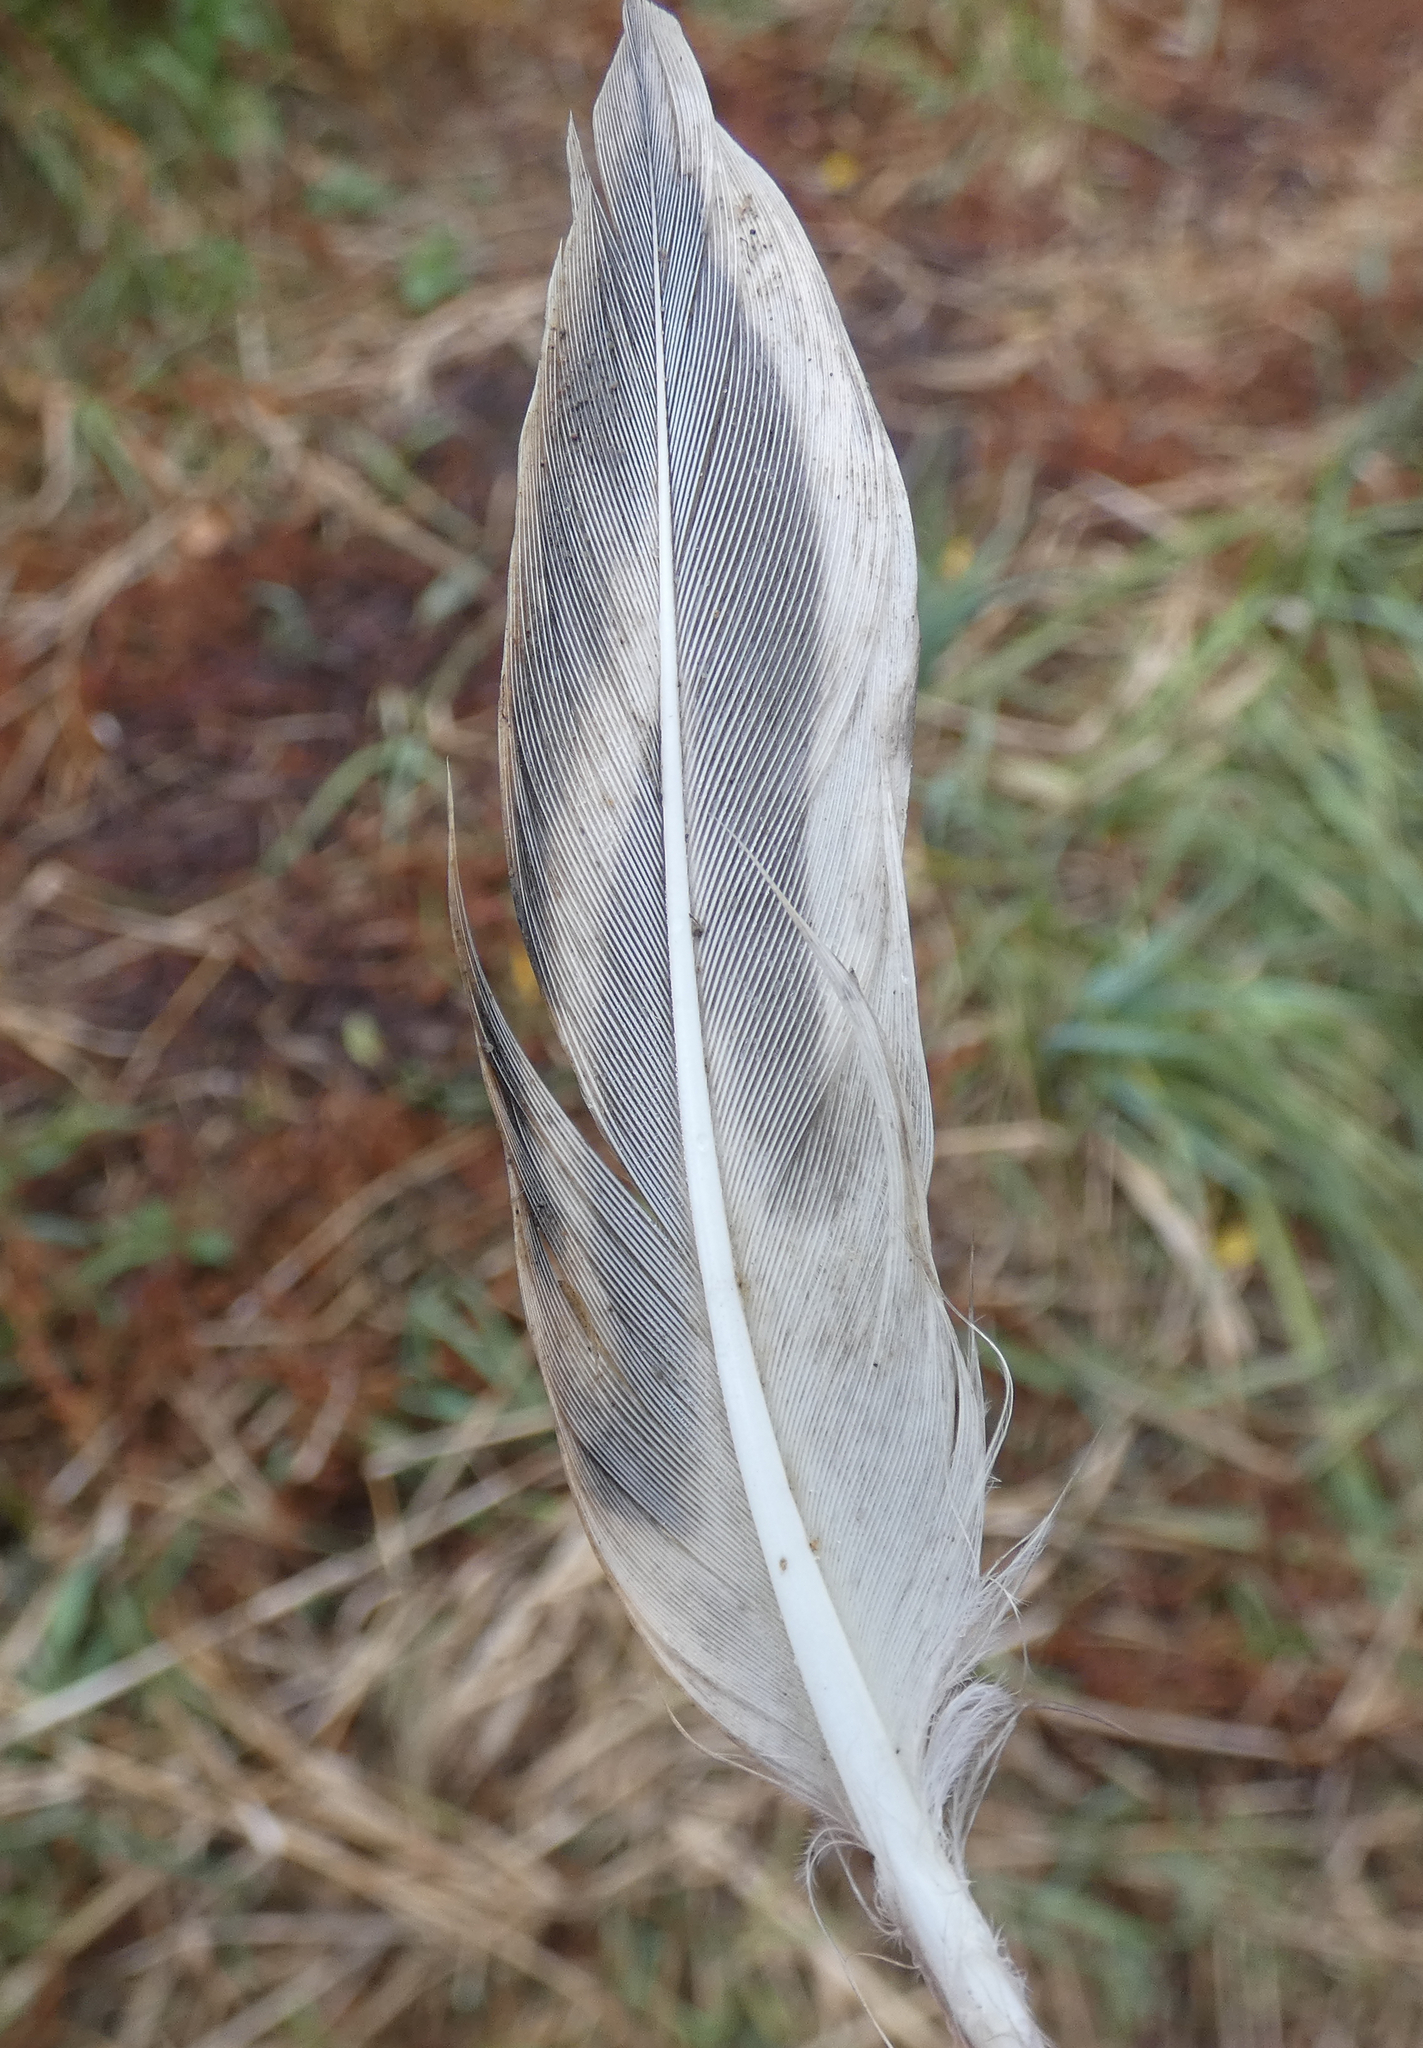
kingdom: Animalia
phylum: Chordata
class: Aves
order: Anseriformes
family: Anatidae
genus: Anas
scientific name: Anas platyrhynchos
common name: Mallard
